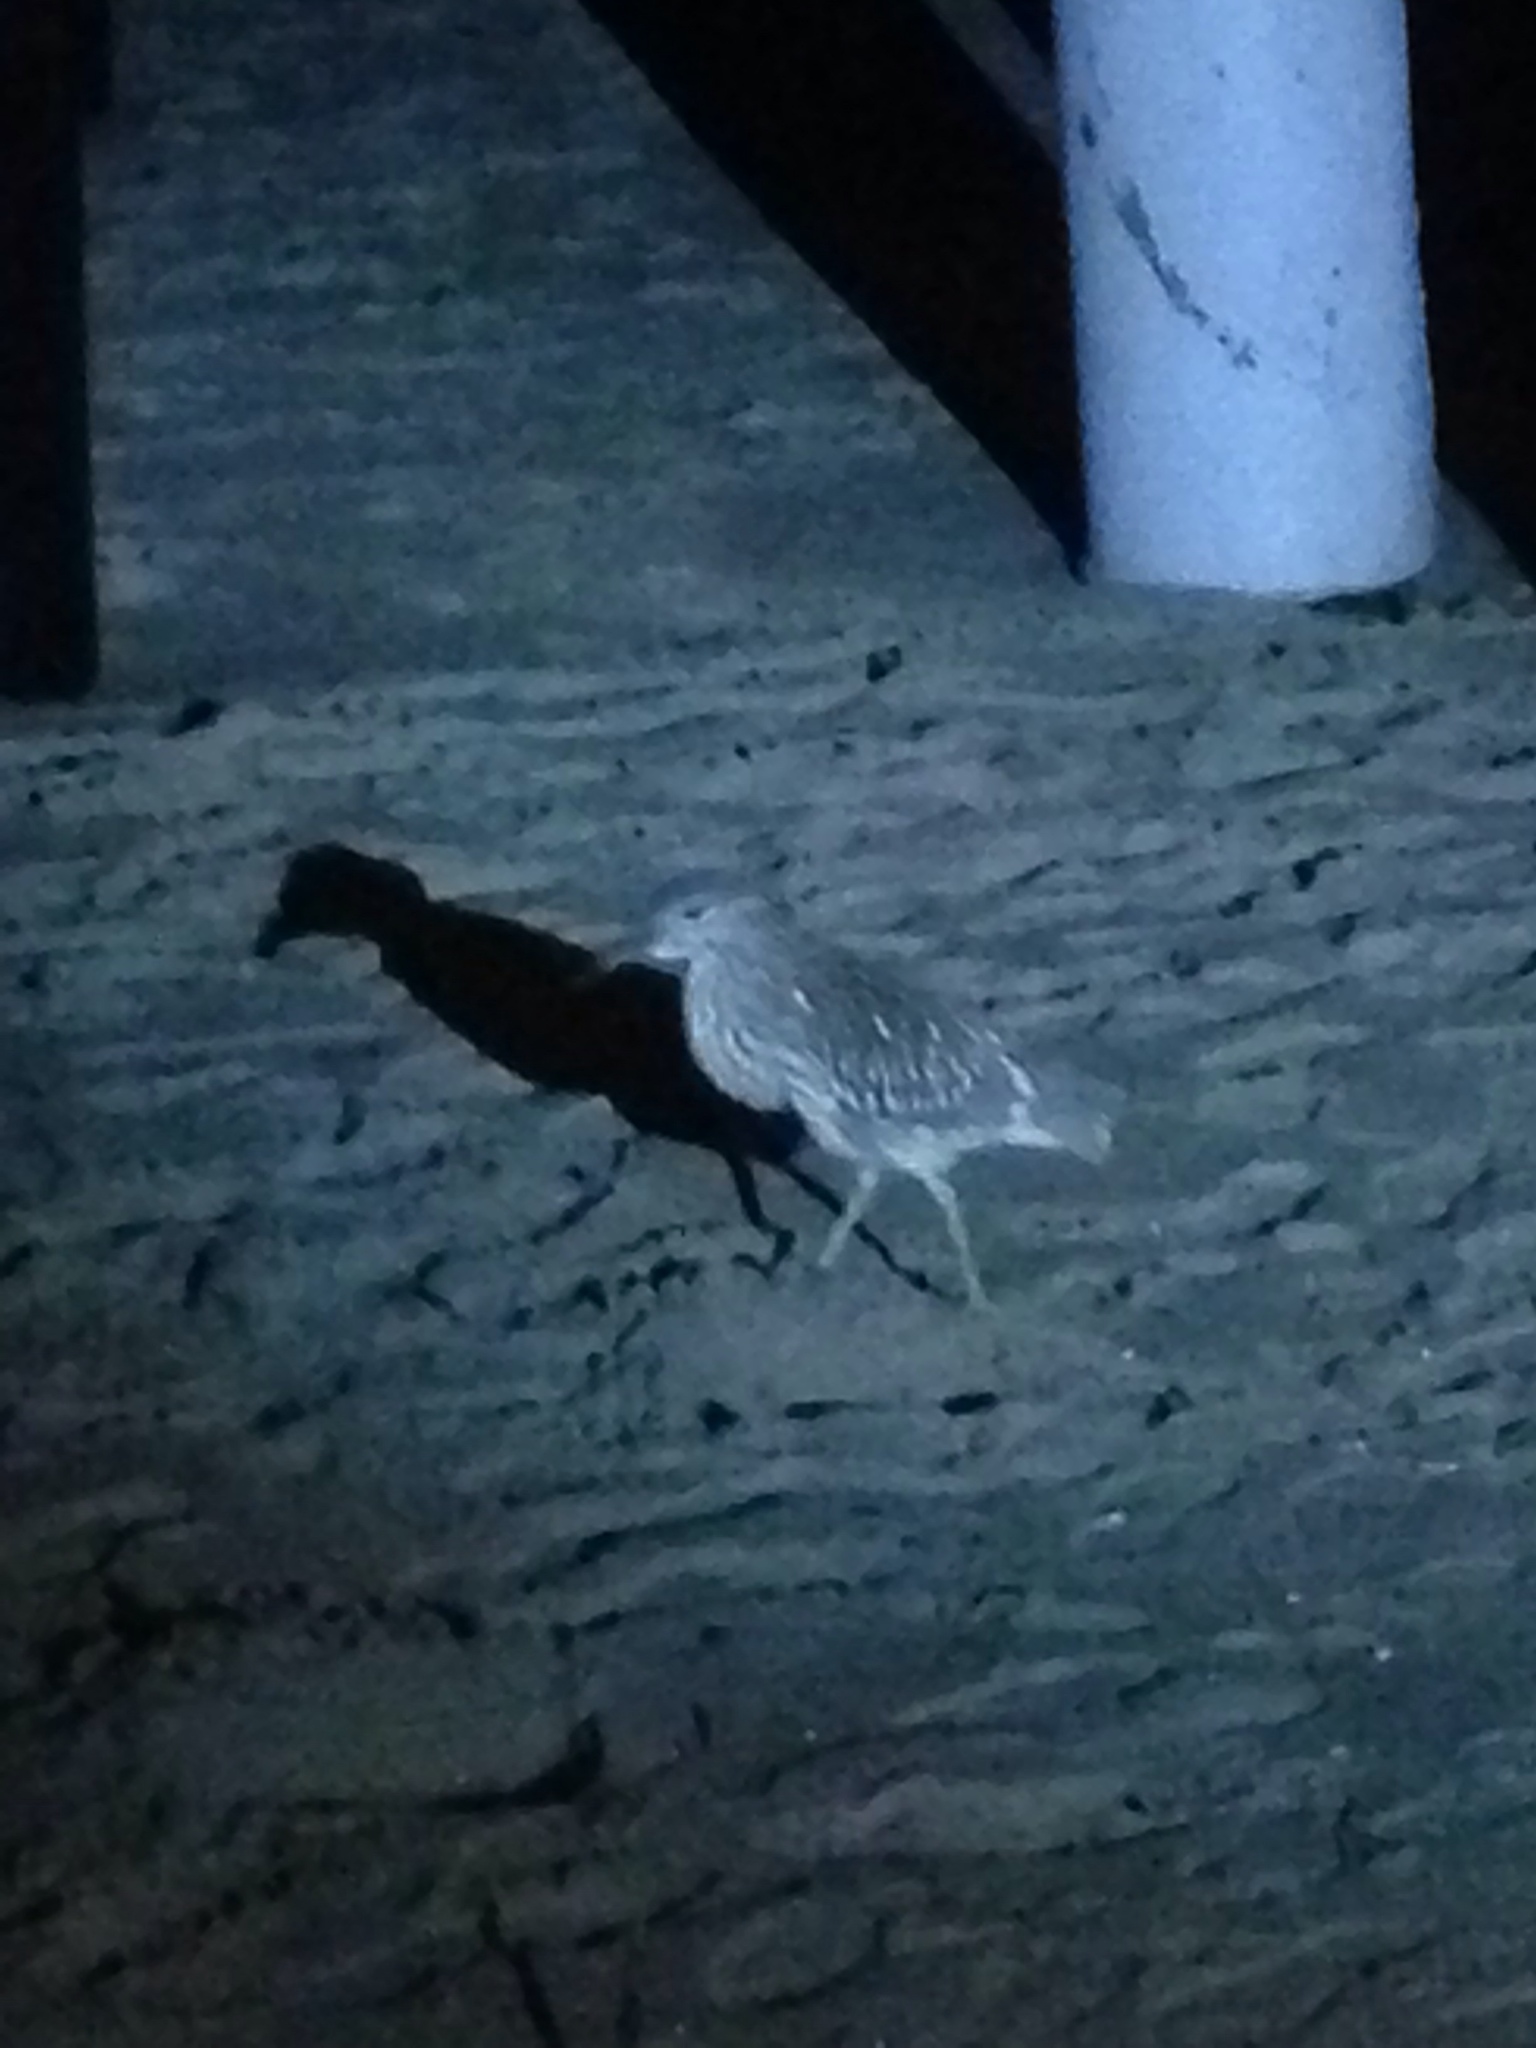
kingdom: Animalia
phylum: Chordata
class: Aves
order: Pelecaniformes
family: Ardeidae
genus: Nycticorax
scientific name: Nycticorax nycticorax
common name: Black-crowned night heron
